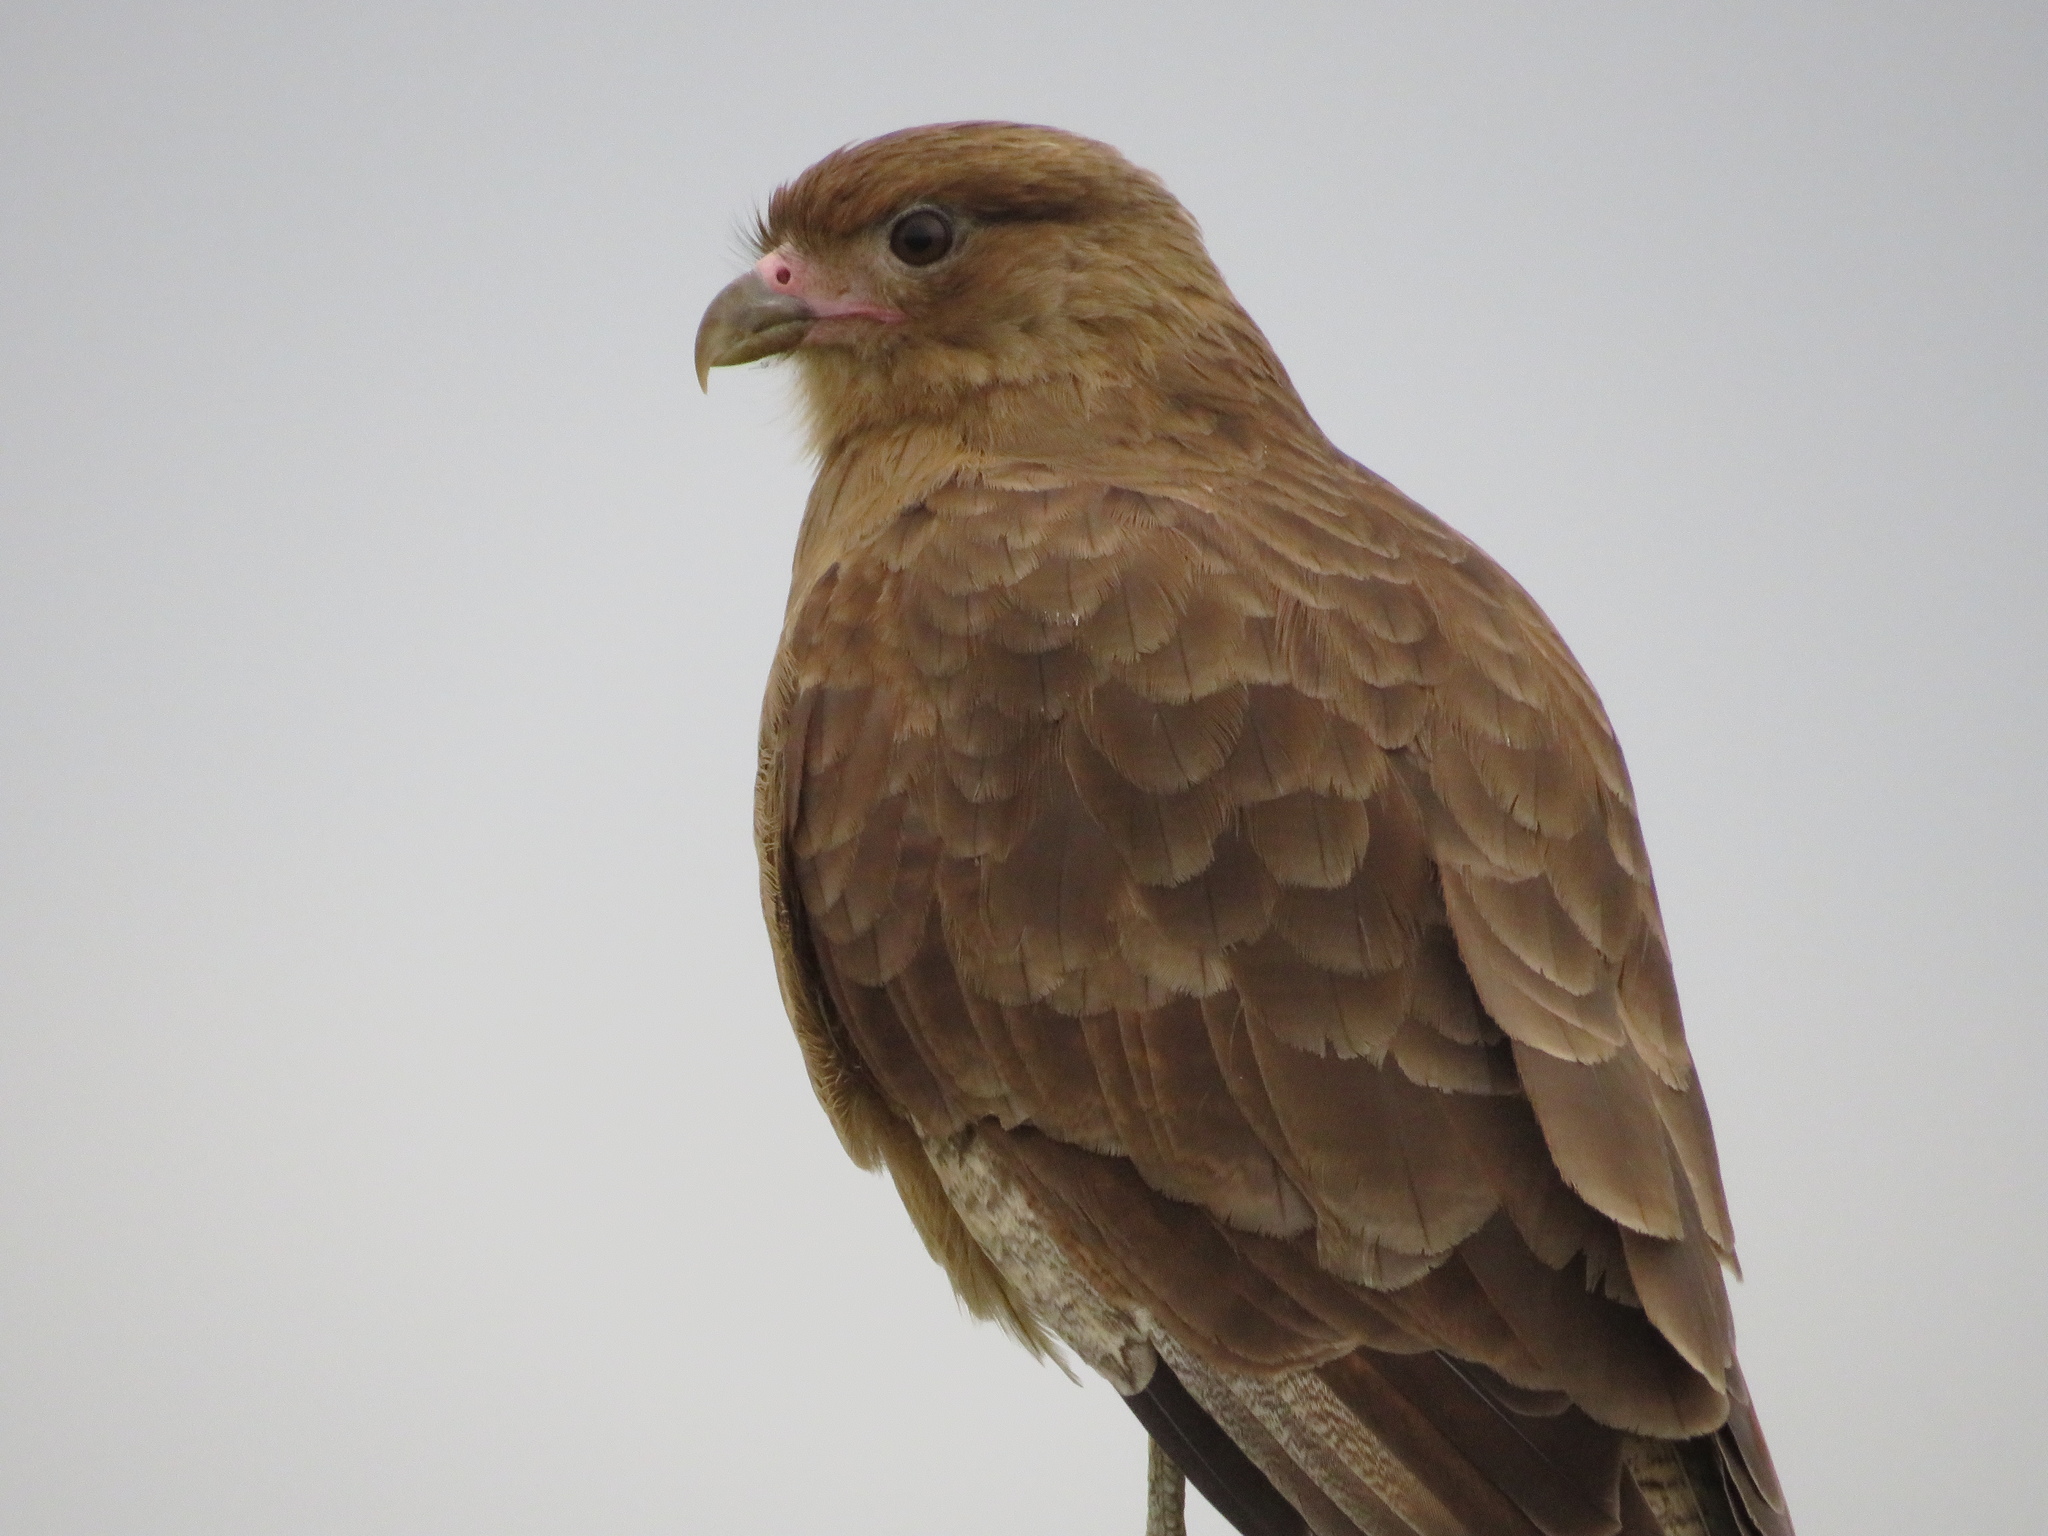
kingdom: Animalia
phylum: Chordata
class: Aves
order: Falconiformes
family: Falconidae
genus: Daptrius
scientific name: Daptrius
